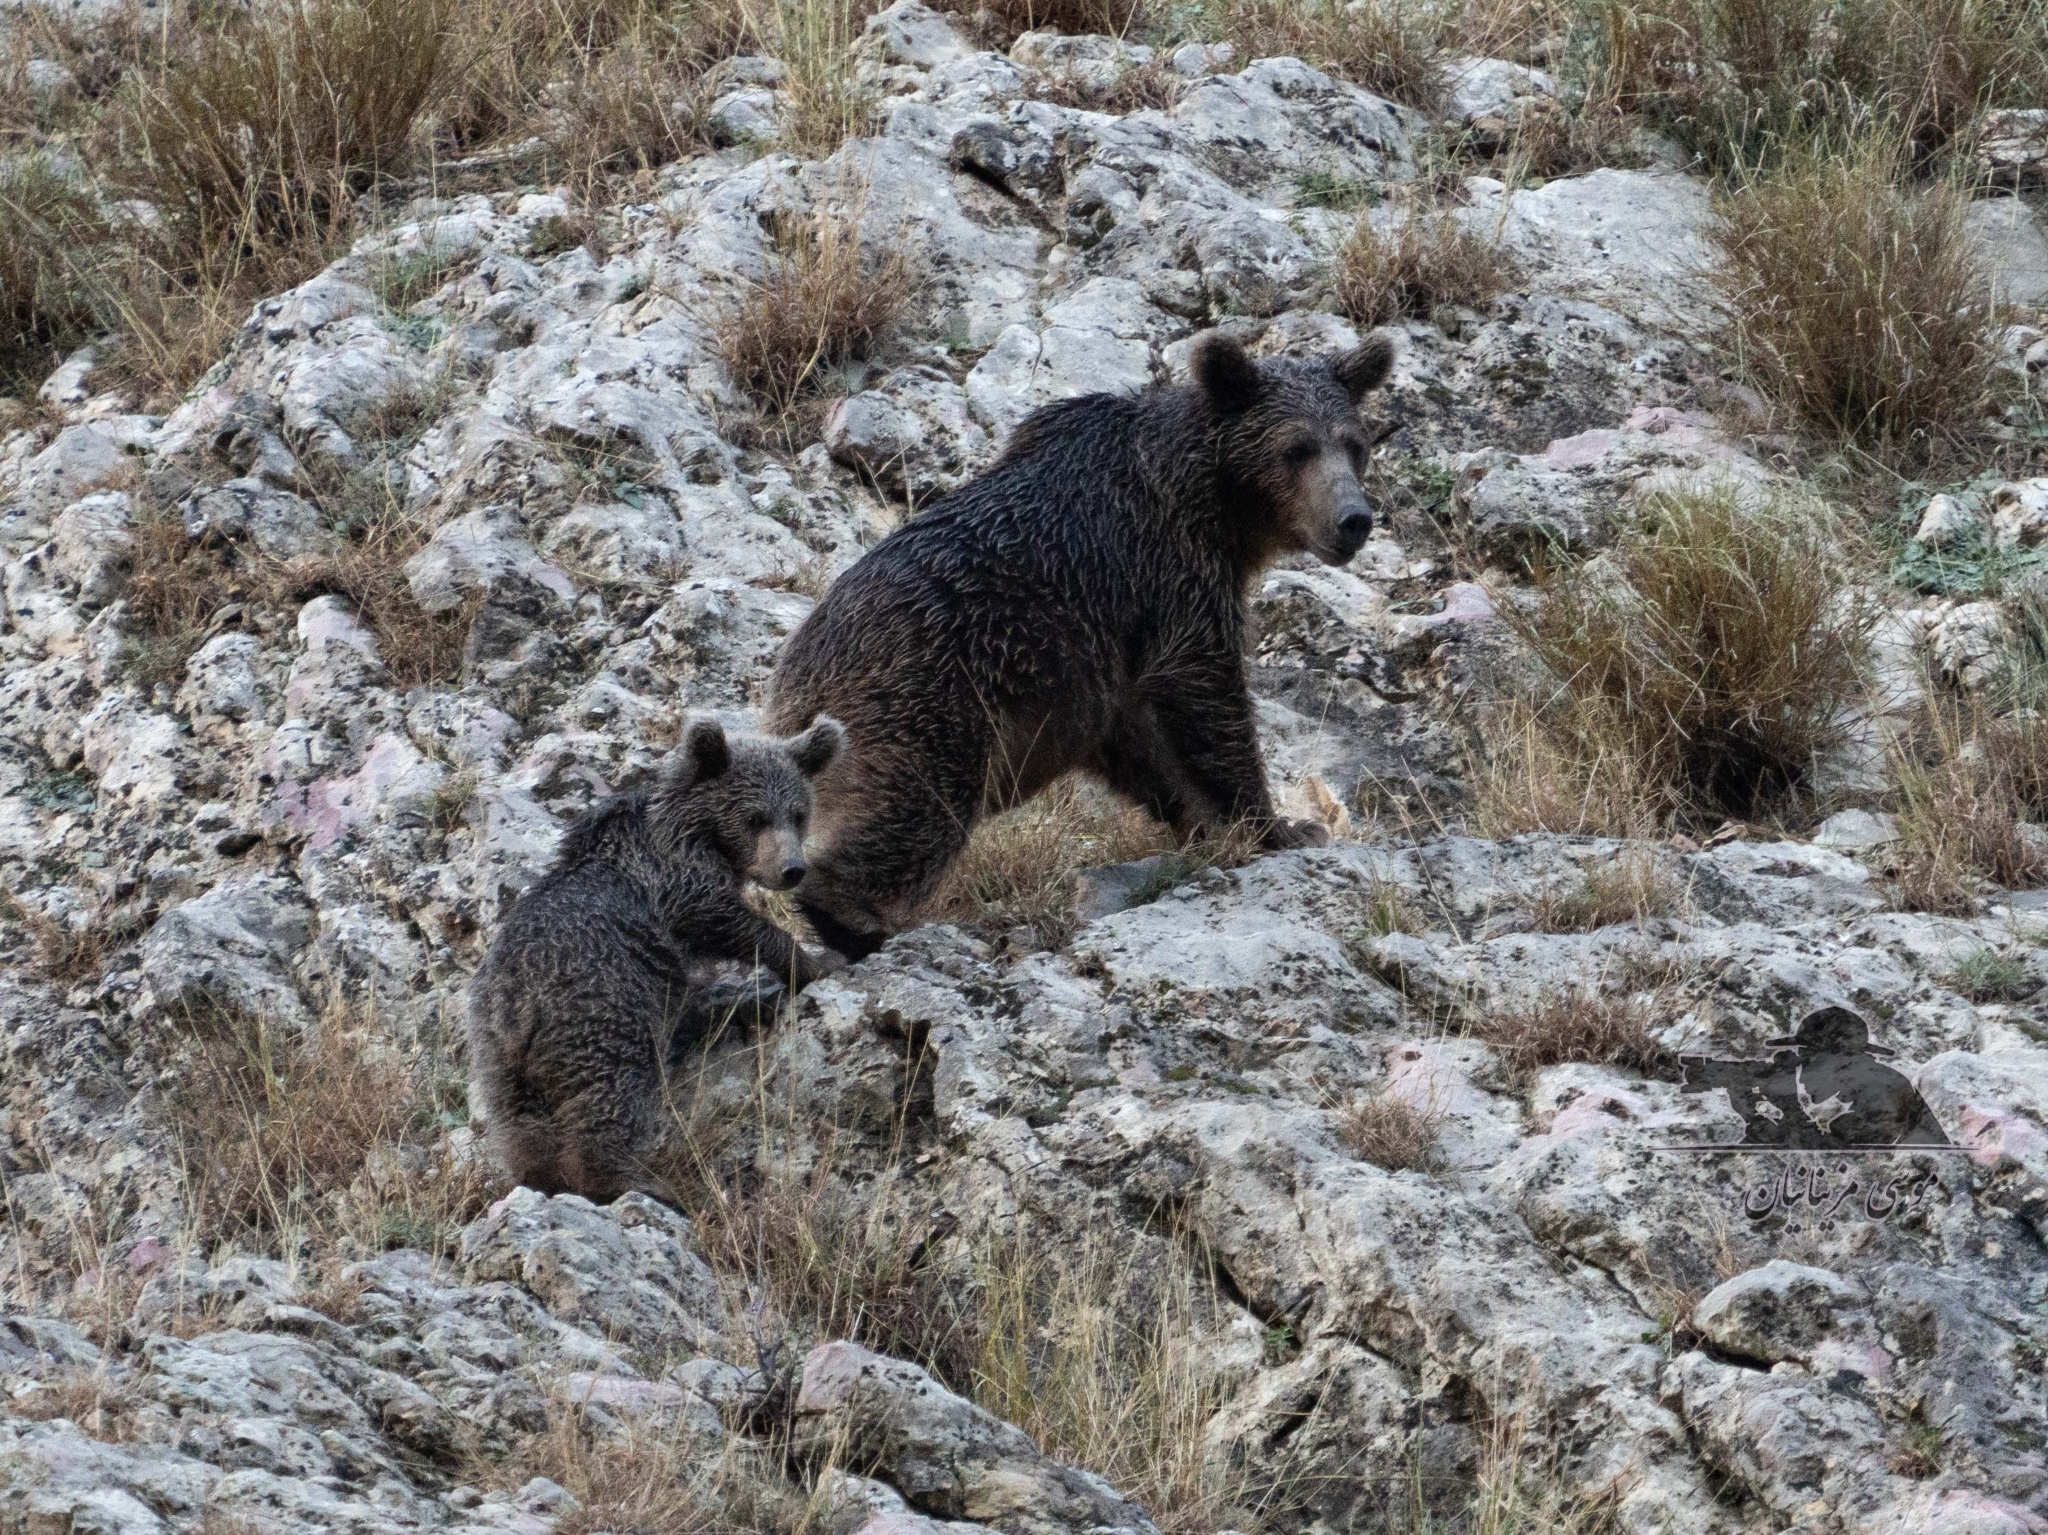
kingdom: Animalia
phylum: Chordata
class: Mammalia
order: Carnivora
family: Ursidae
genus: Ursus
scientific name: Ursus arctos
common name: Brown bear
